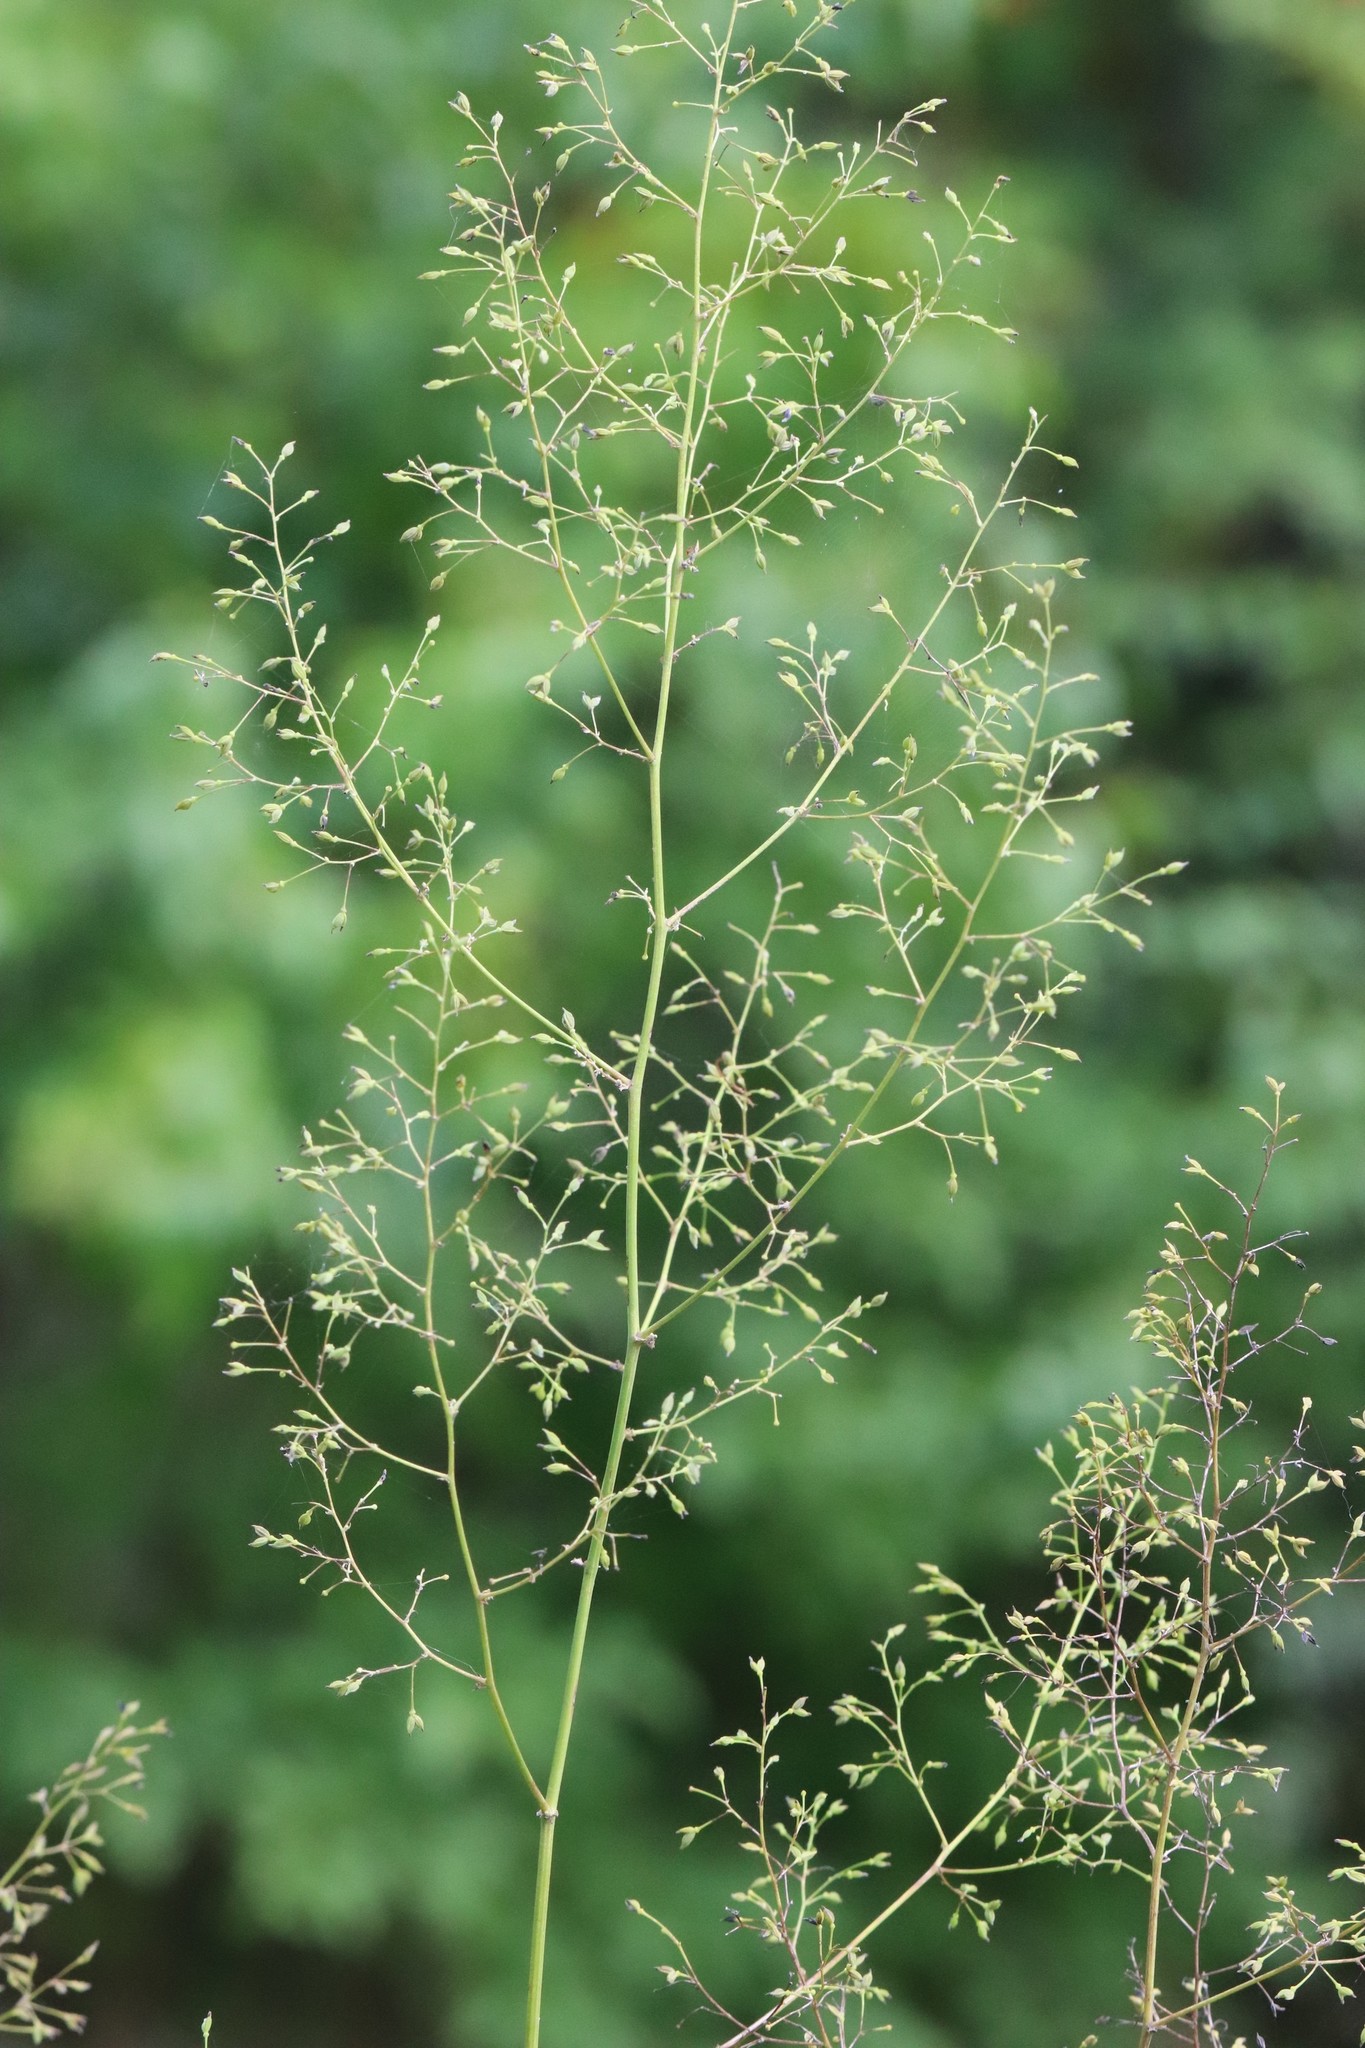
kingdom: Plantae
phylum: Tracheophyta
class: Magnoliopsida
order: Ranunculales
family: Ranunculaceae
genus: Thalictrum
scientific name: Thalictrum minus
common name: Lesser meadow-rue
